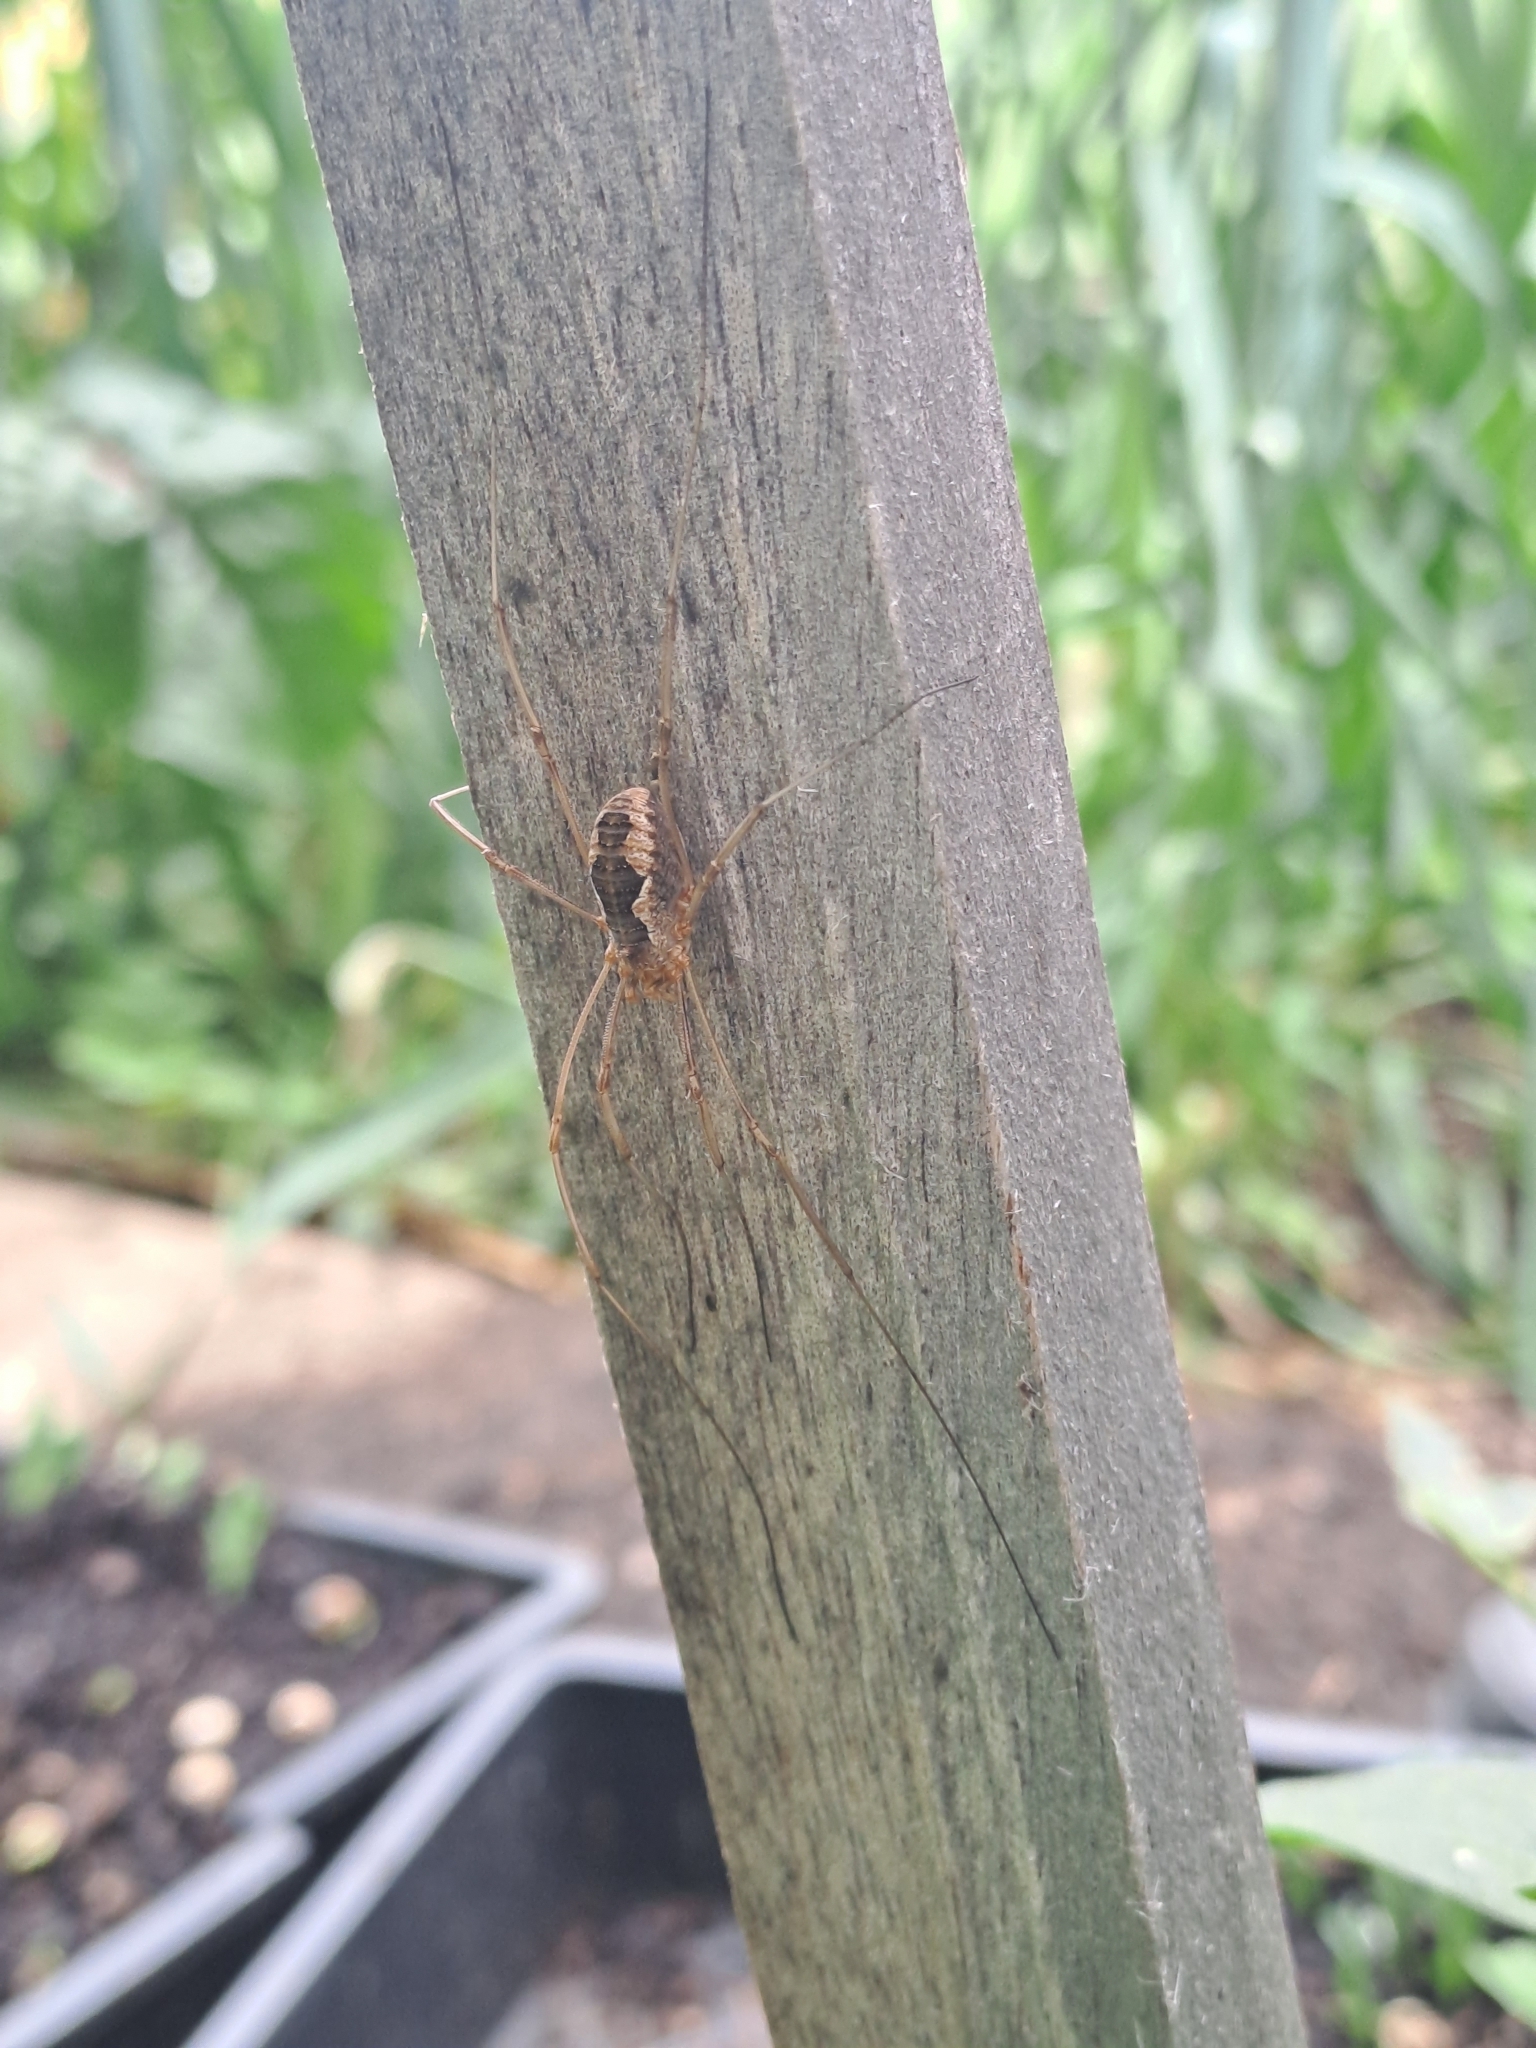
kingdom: Animalia
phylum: Arthropoda
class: Arachnida
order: Opiliones
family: Phalangiidae
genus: Phalangium
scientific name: Phalangium opilio
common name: Daddy longleg
